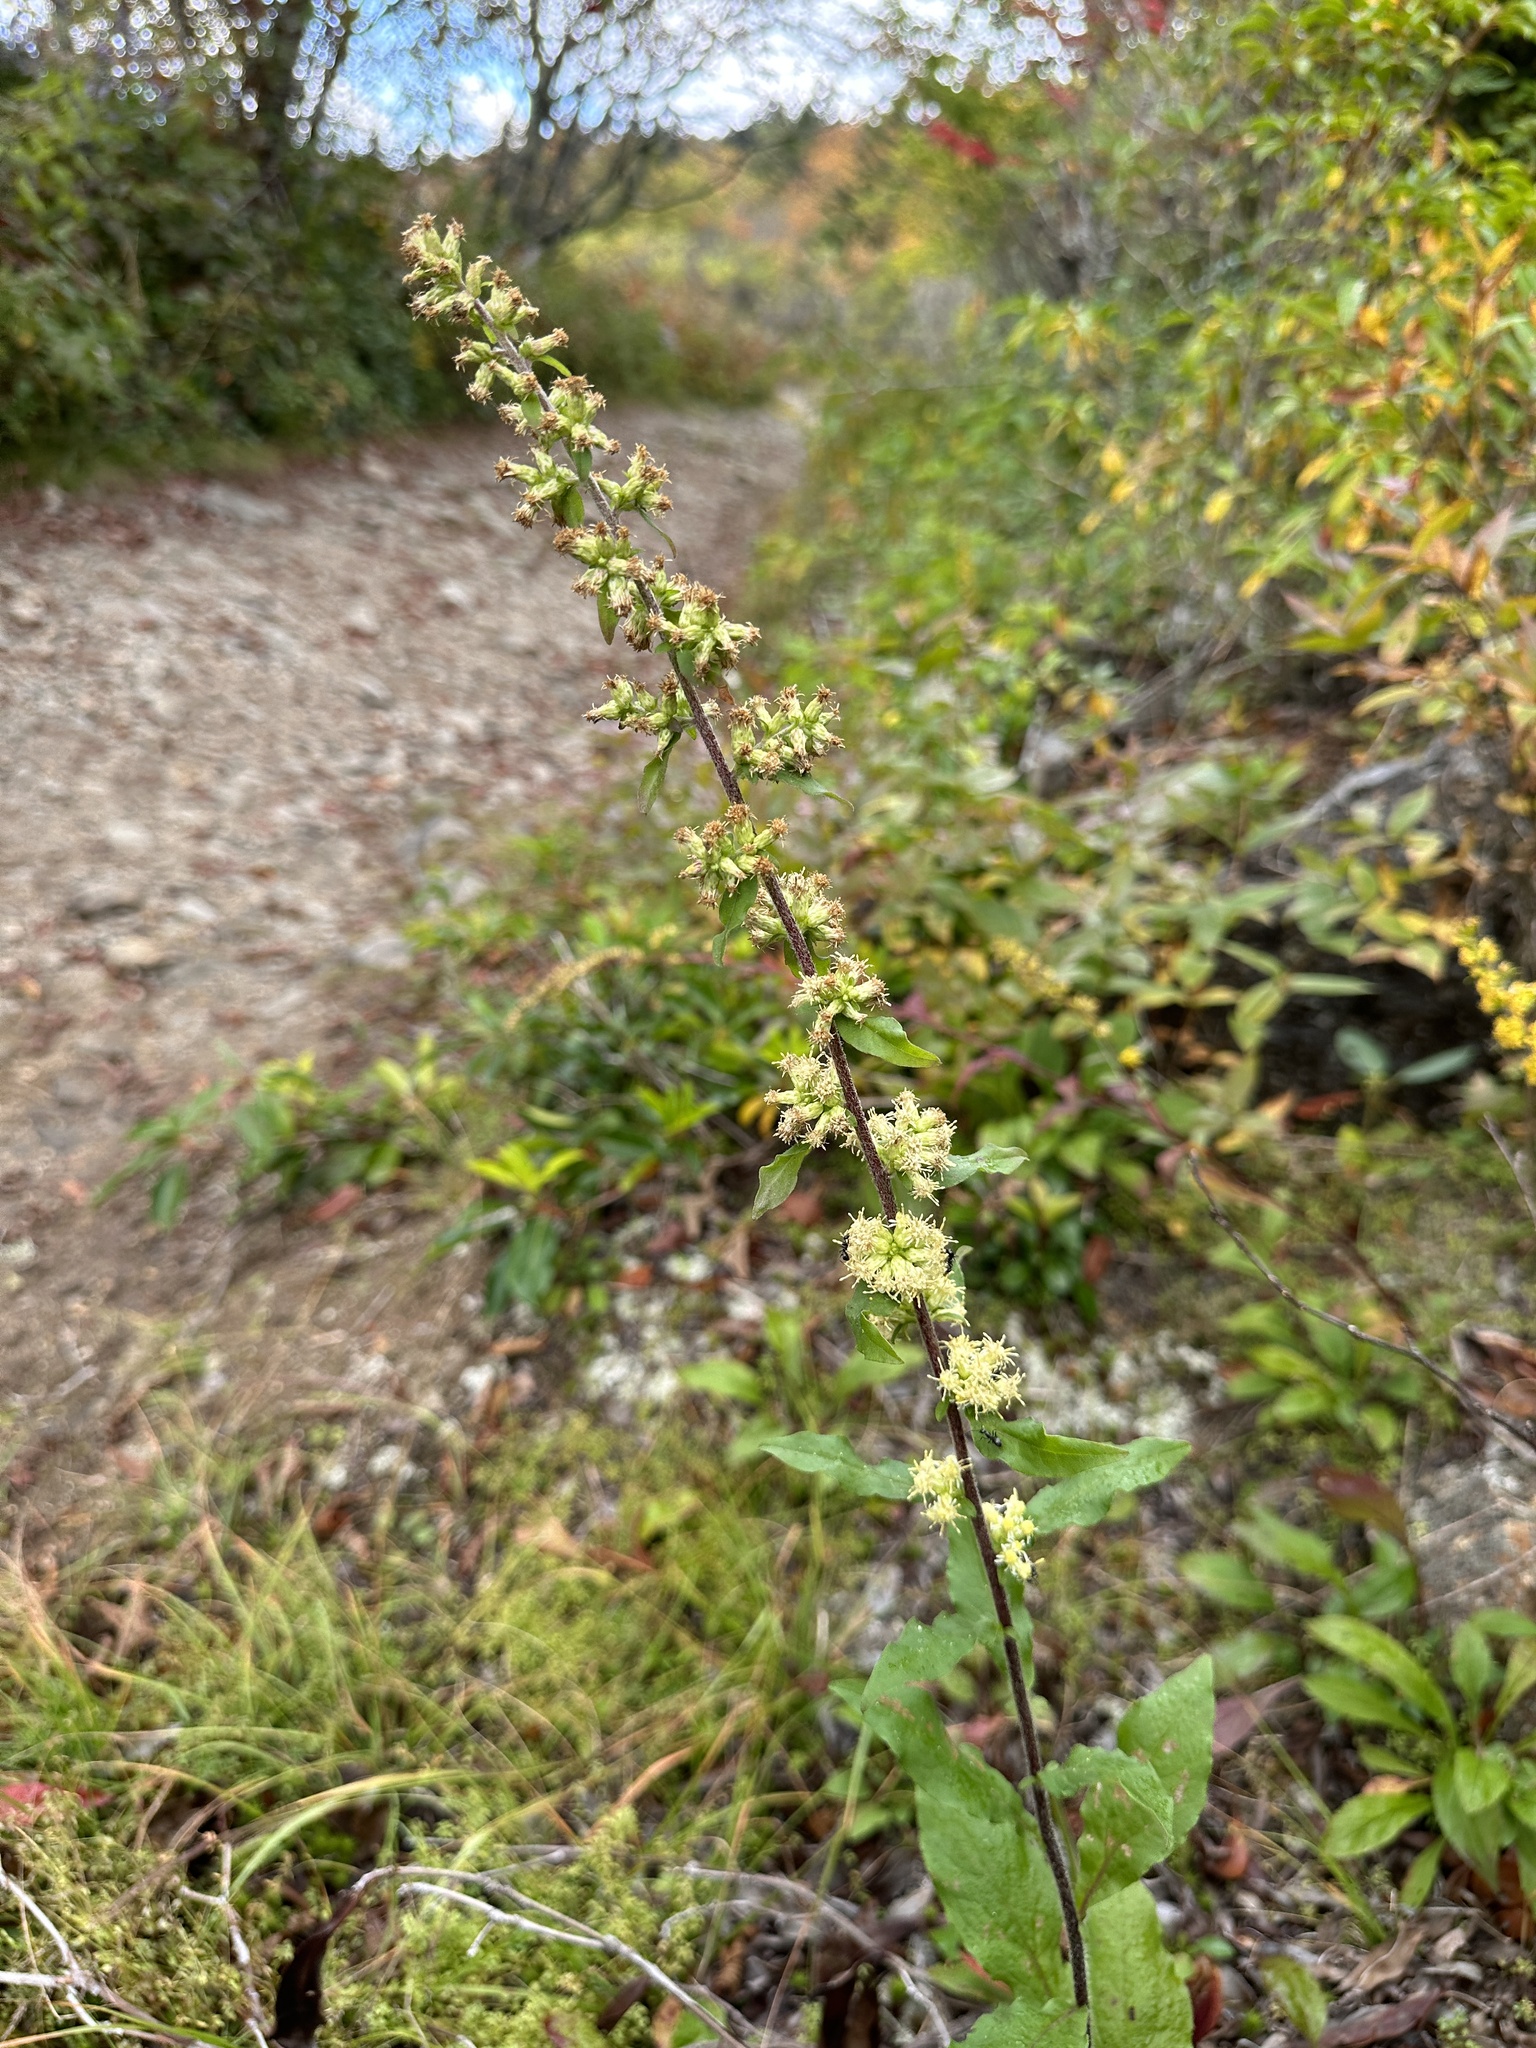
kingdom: Plantae
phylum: Tracheophyta
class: Magnoliopsida
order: Asterales
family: Asteraceae
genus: Solidago
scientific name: Solidago bicolor
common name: Silverrod
